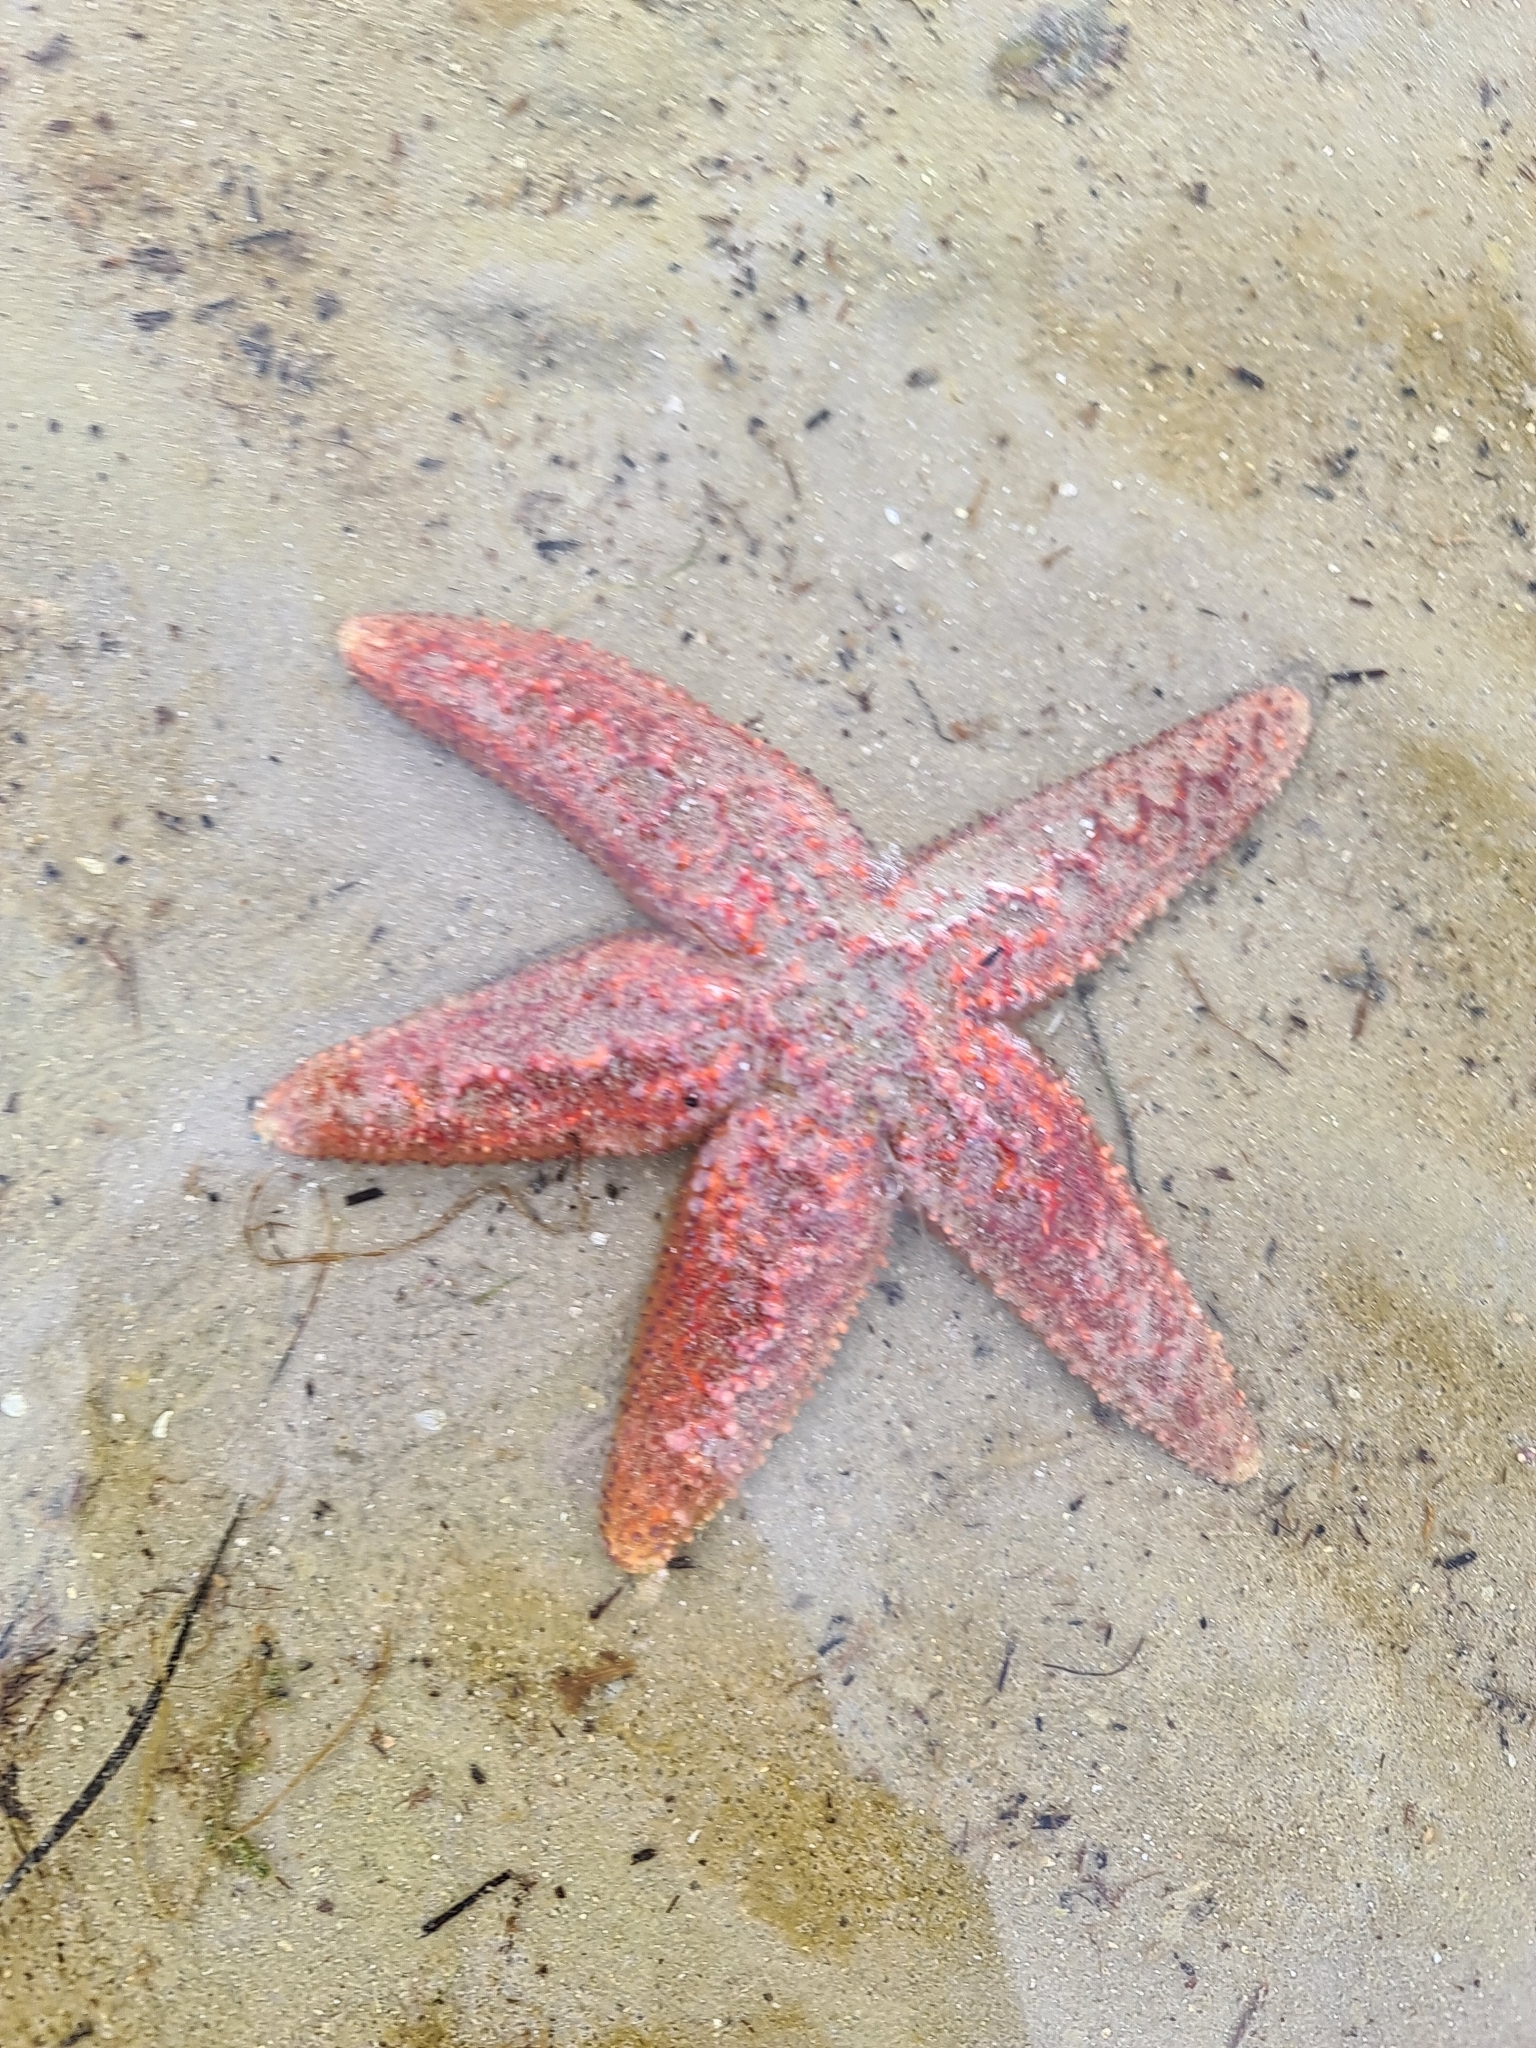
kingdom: Animalia
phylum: Echinodermata
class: Asteroidea
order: Forcipulatida
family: Stichasteridae
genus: Uniophora
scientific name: Uniophora granifera
